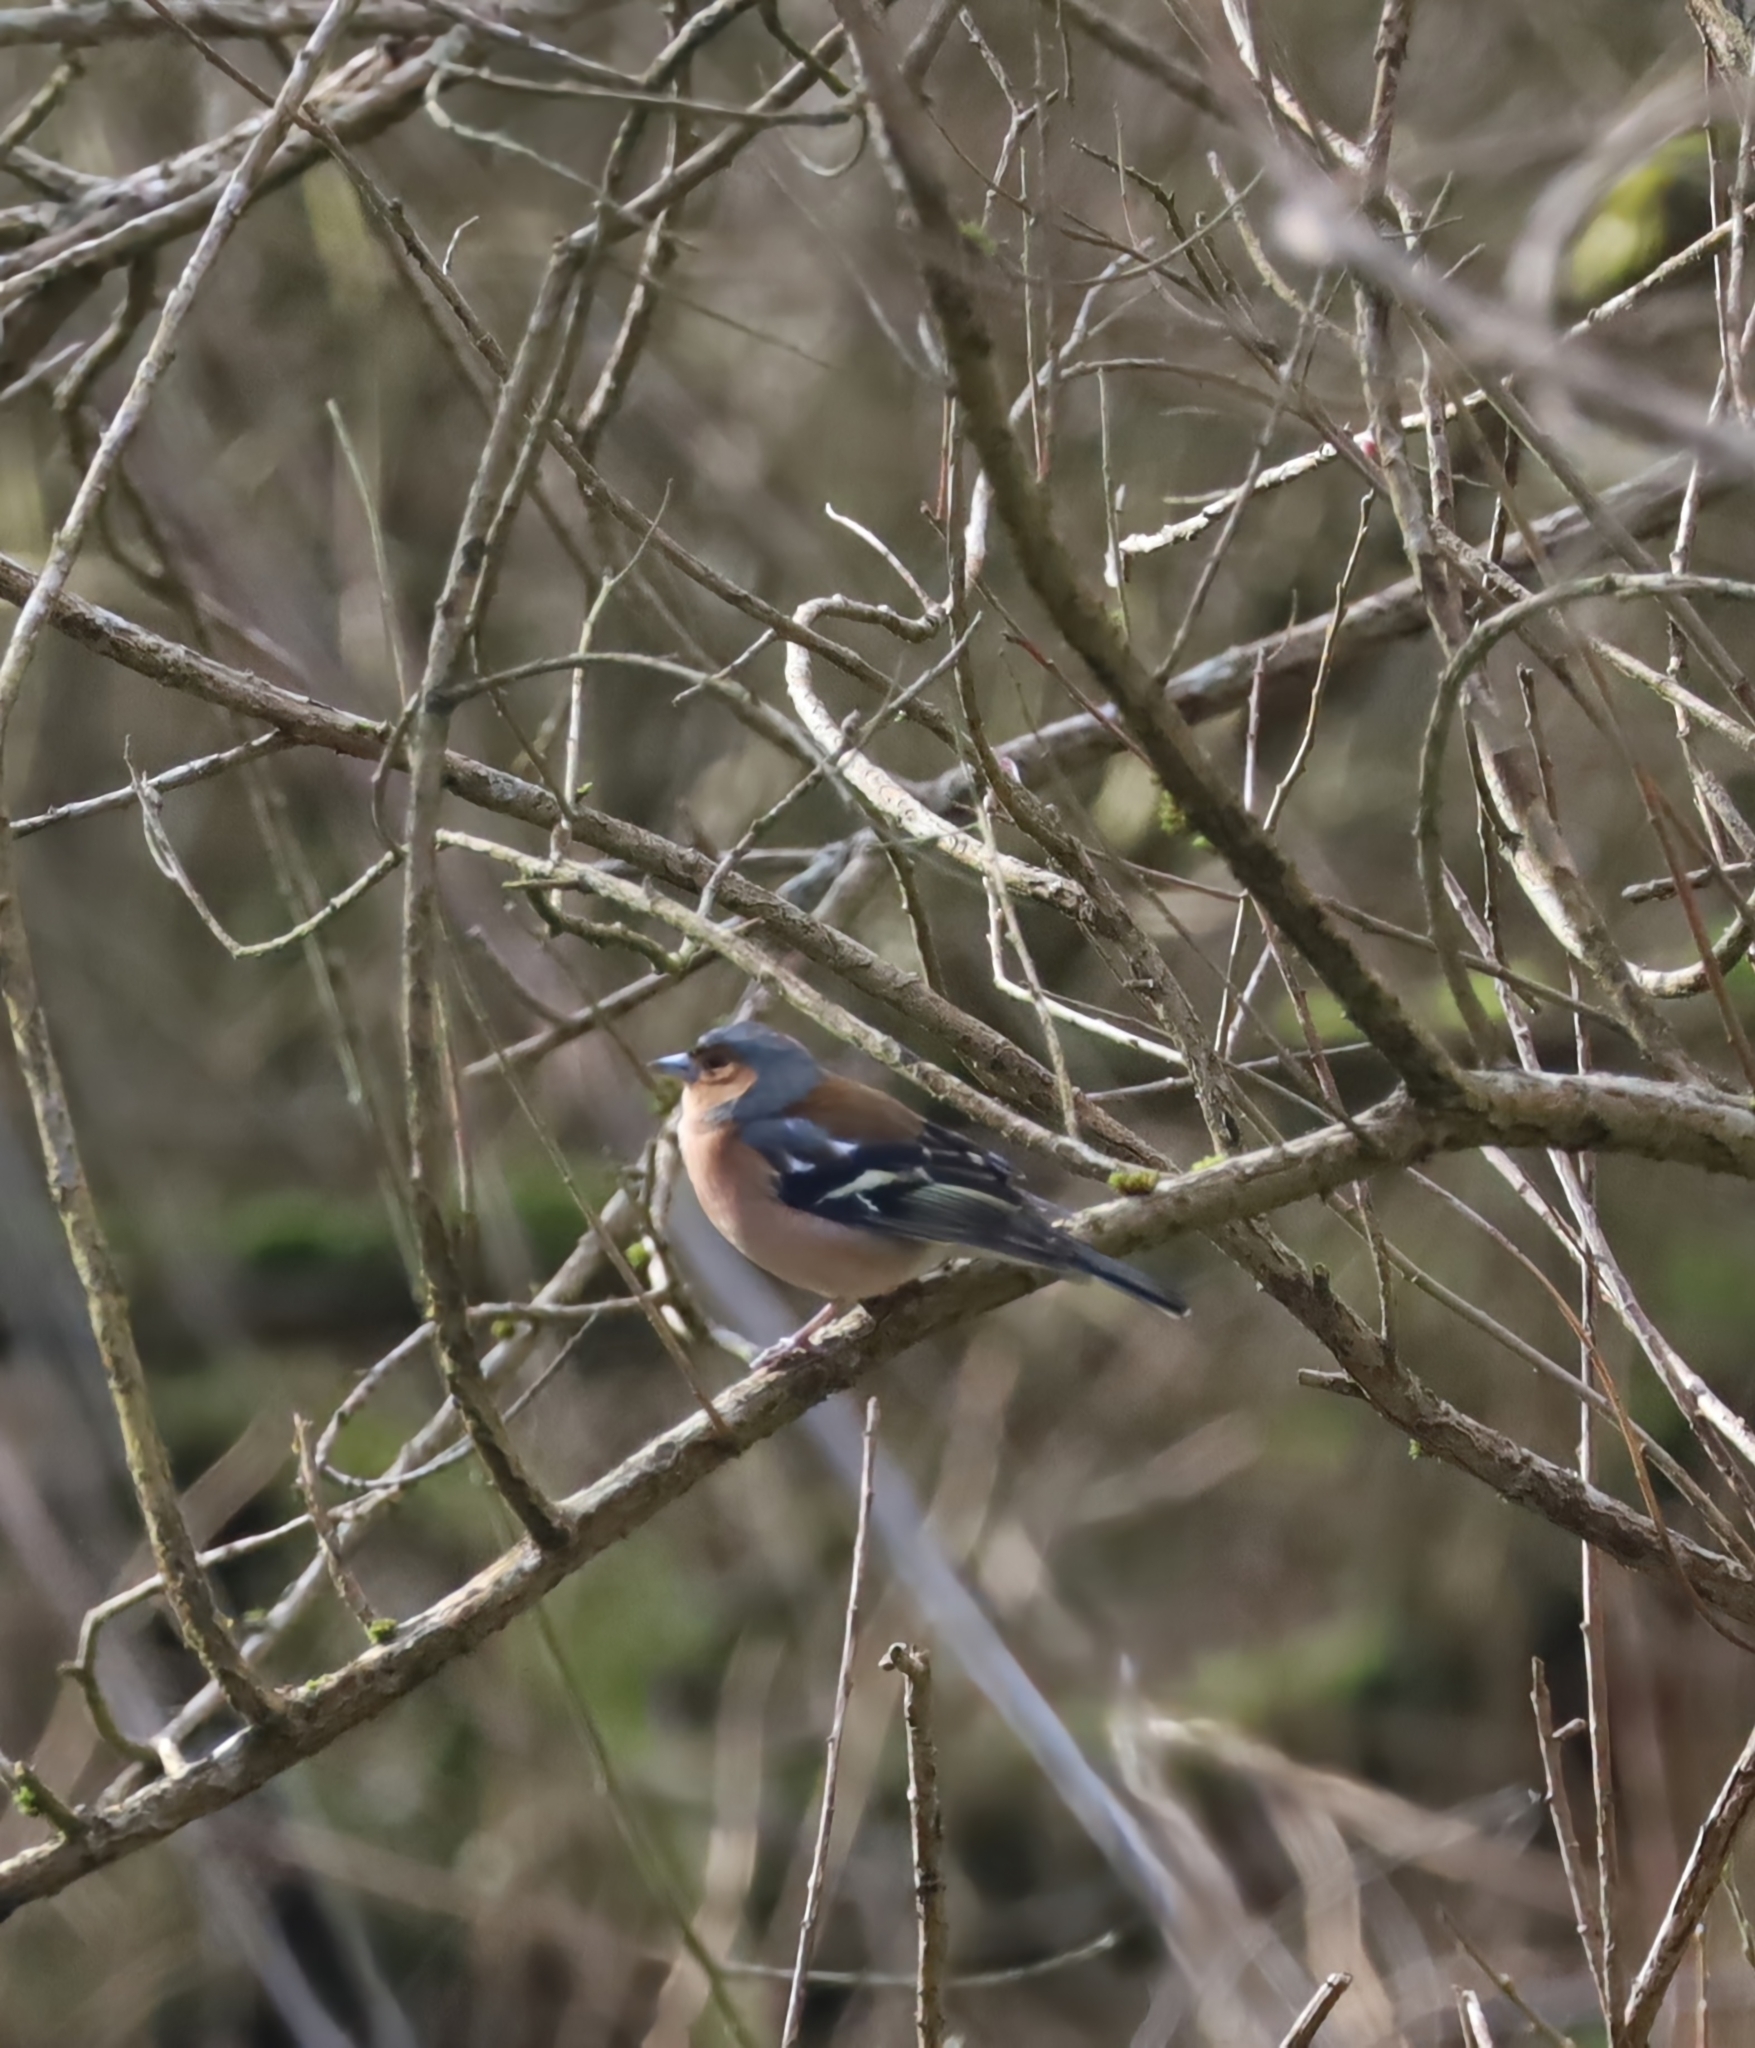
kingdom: Animalia
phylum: Chordata
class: Aves
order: Passeriformes
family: Fringillidae
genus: Fringilla
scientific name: Fringilla coelebs
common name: Common chaffinch
